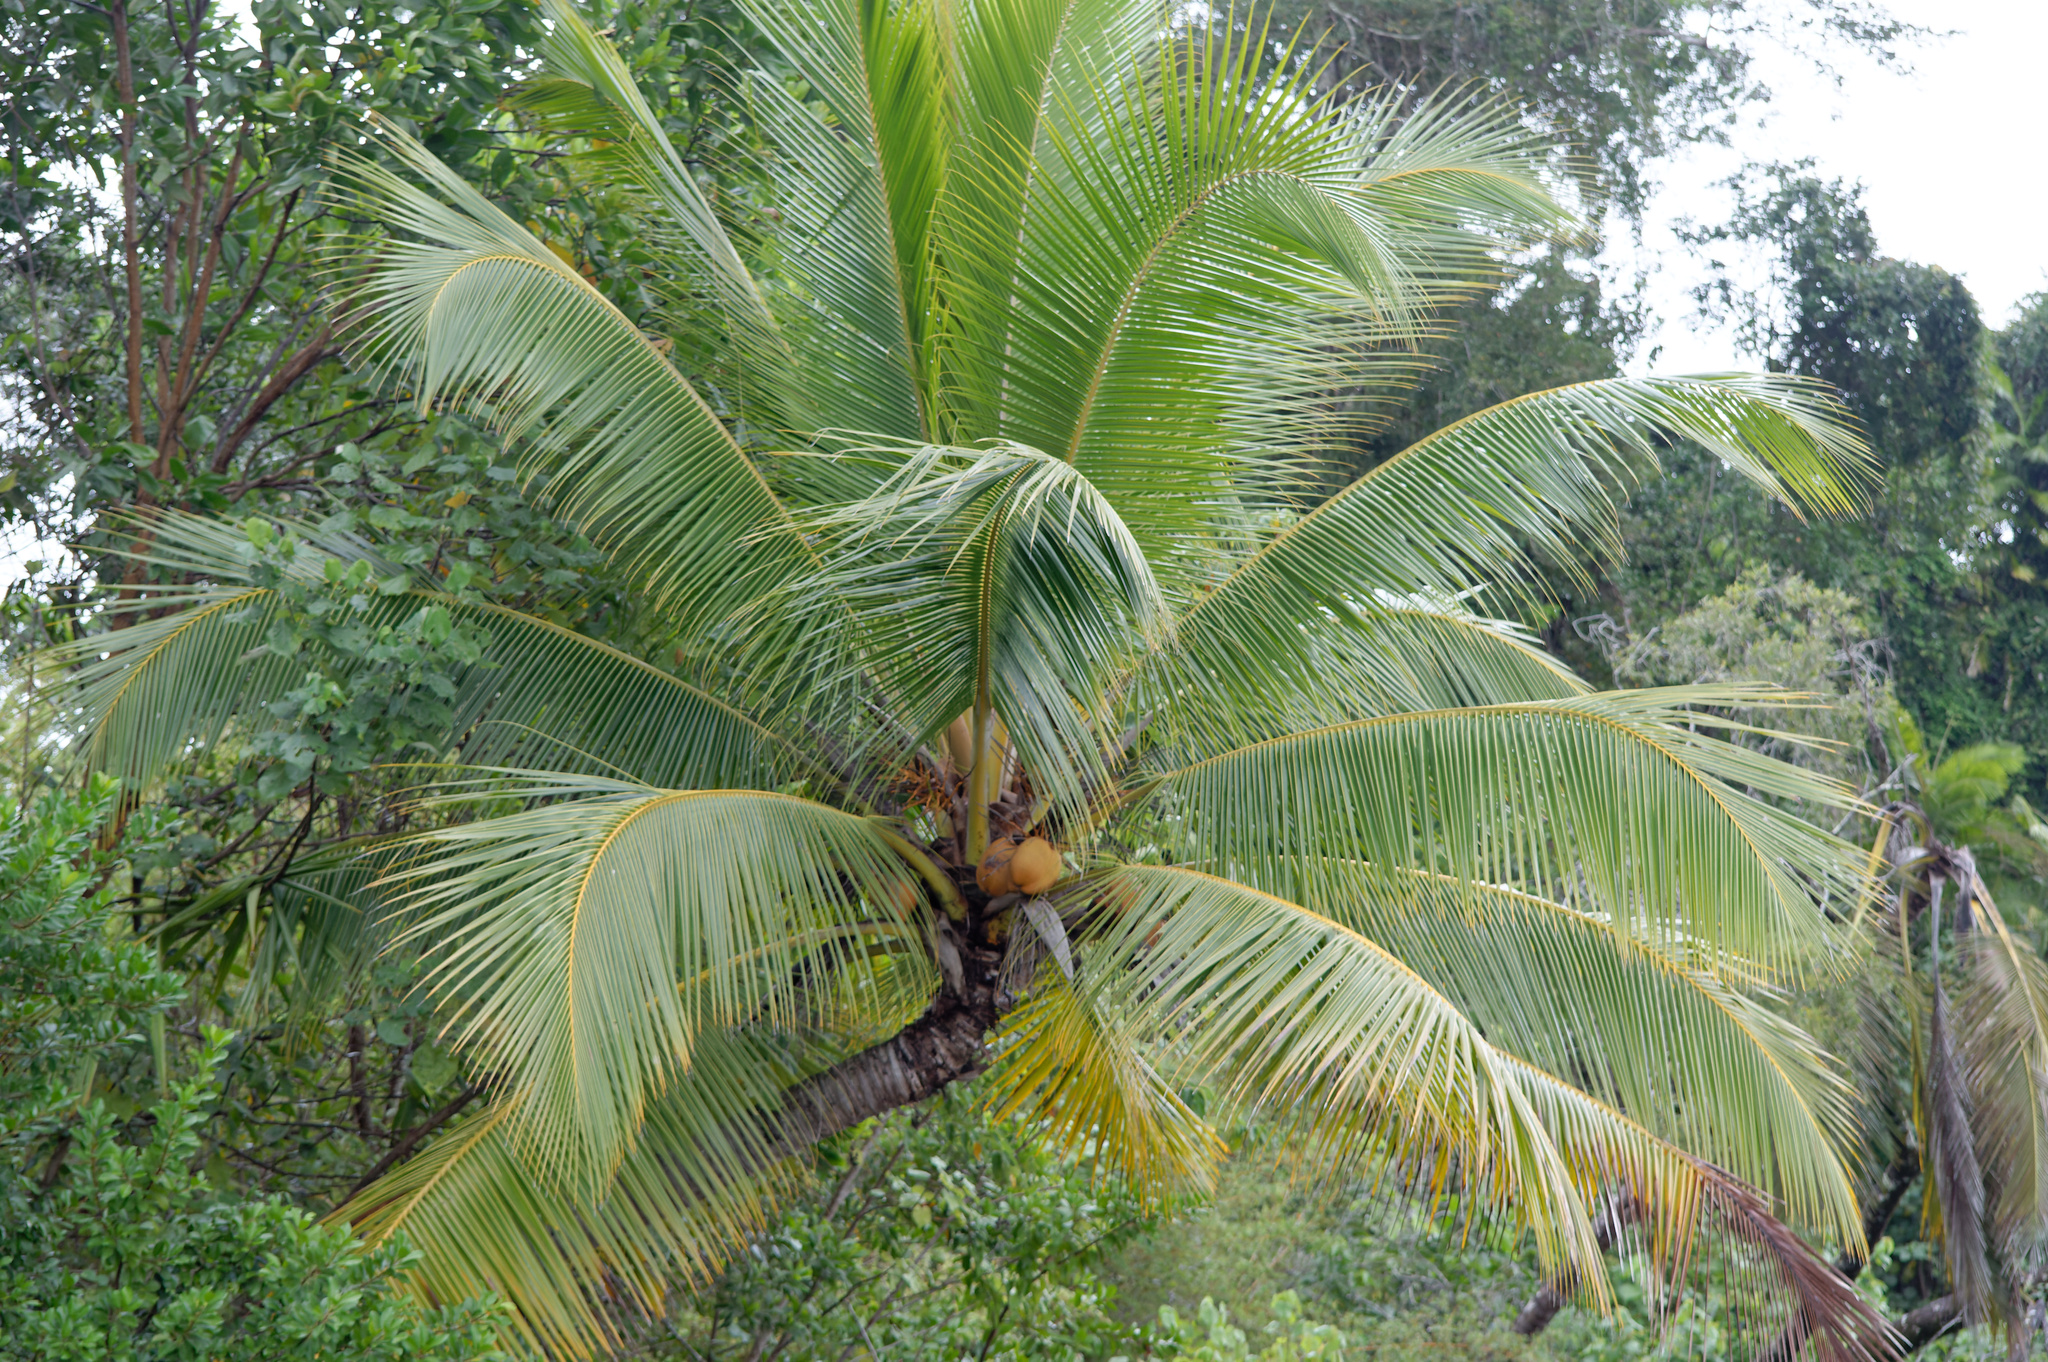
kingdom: Plantae
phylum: Tracheophyta
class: Liliopsida
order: Arecales
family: Arecaceae
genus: Cocos
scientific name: Cocos nucifera
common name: Coconut palm
